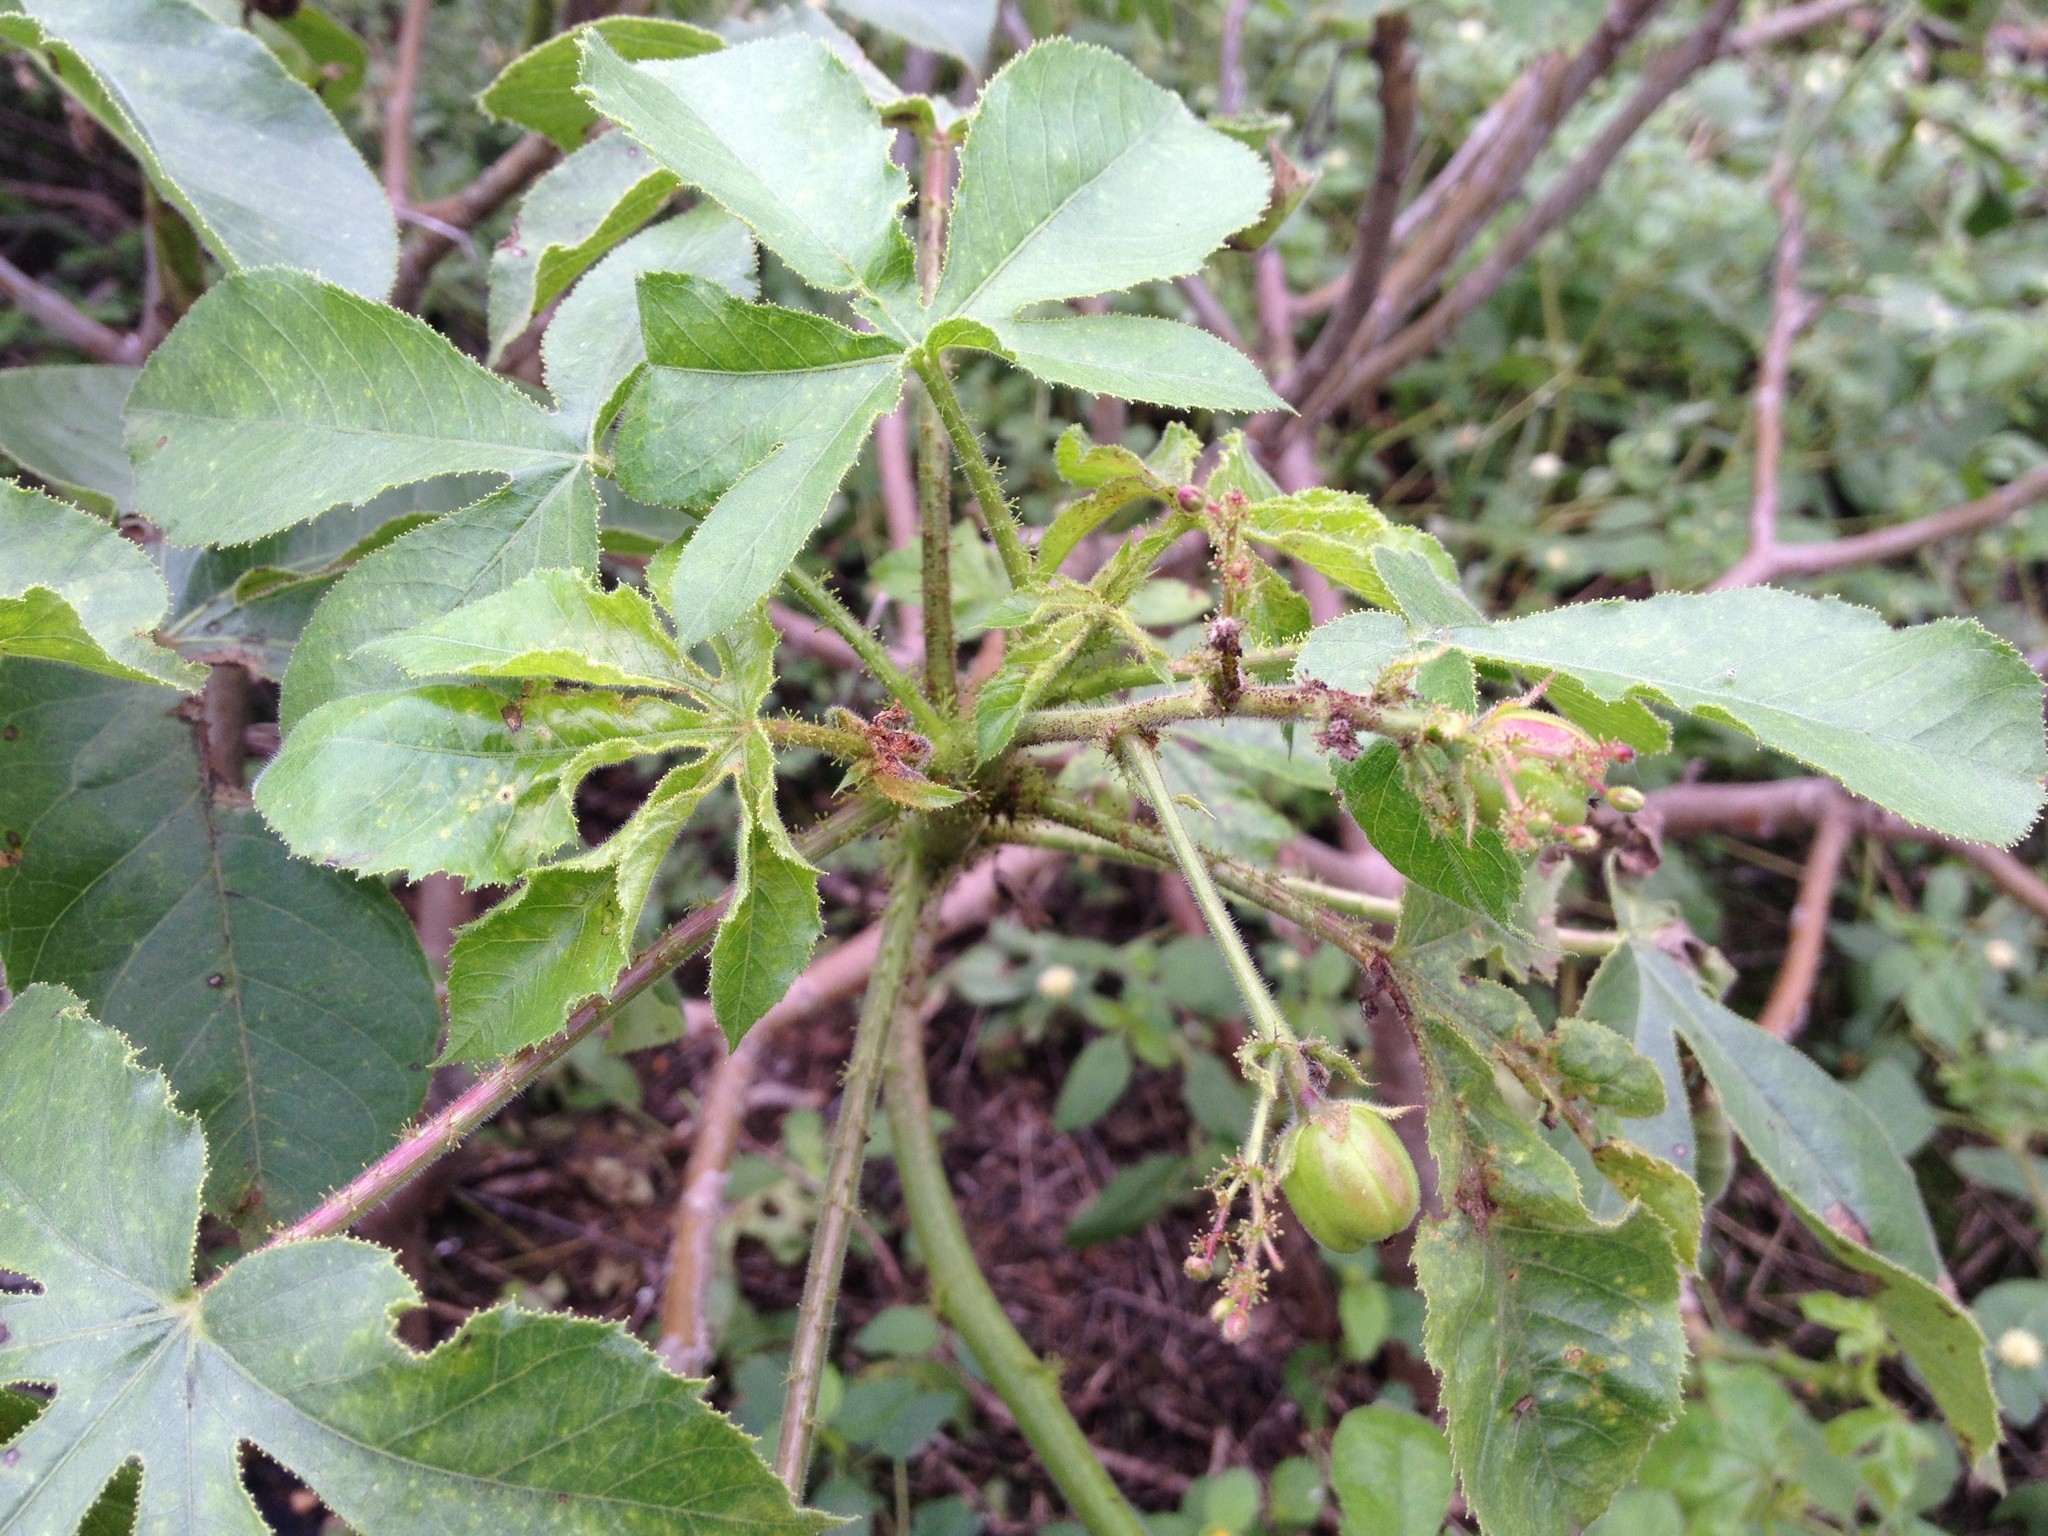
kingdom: Plantae
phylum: Tracheophyta
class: Magnoliopsida
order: Malpighiales
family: Euphorbiaceae
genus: Jatropha
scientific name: Jatropha hippocastanifolia
